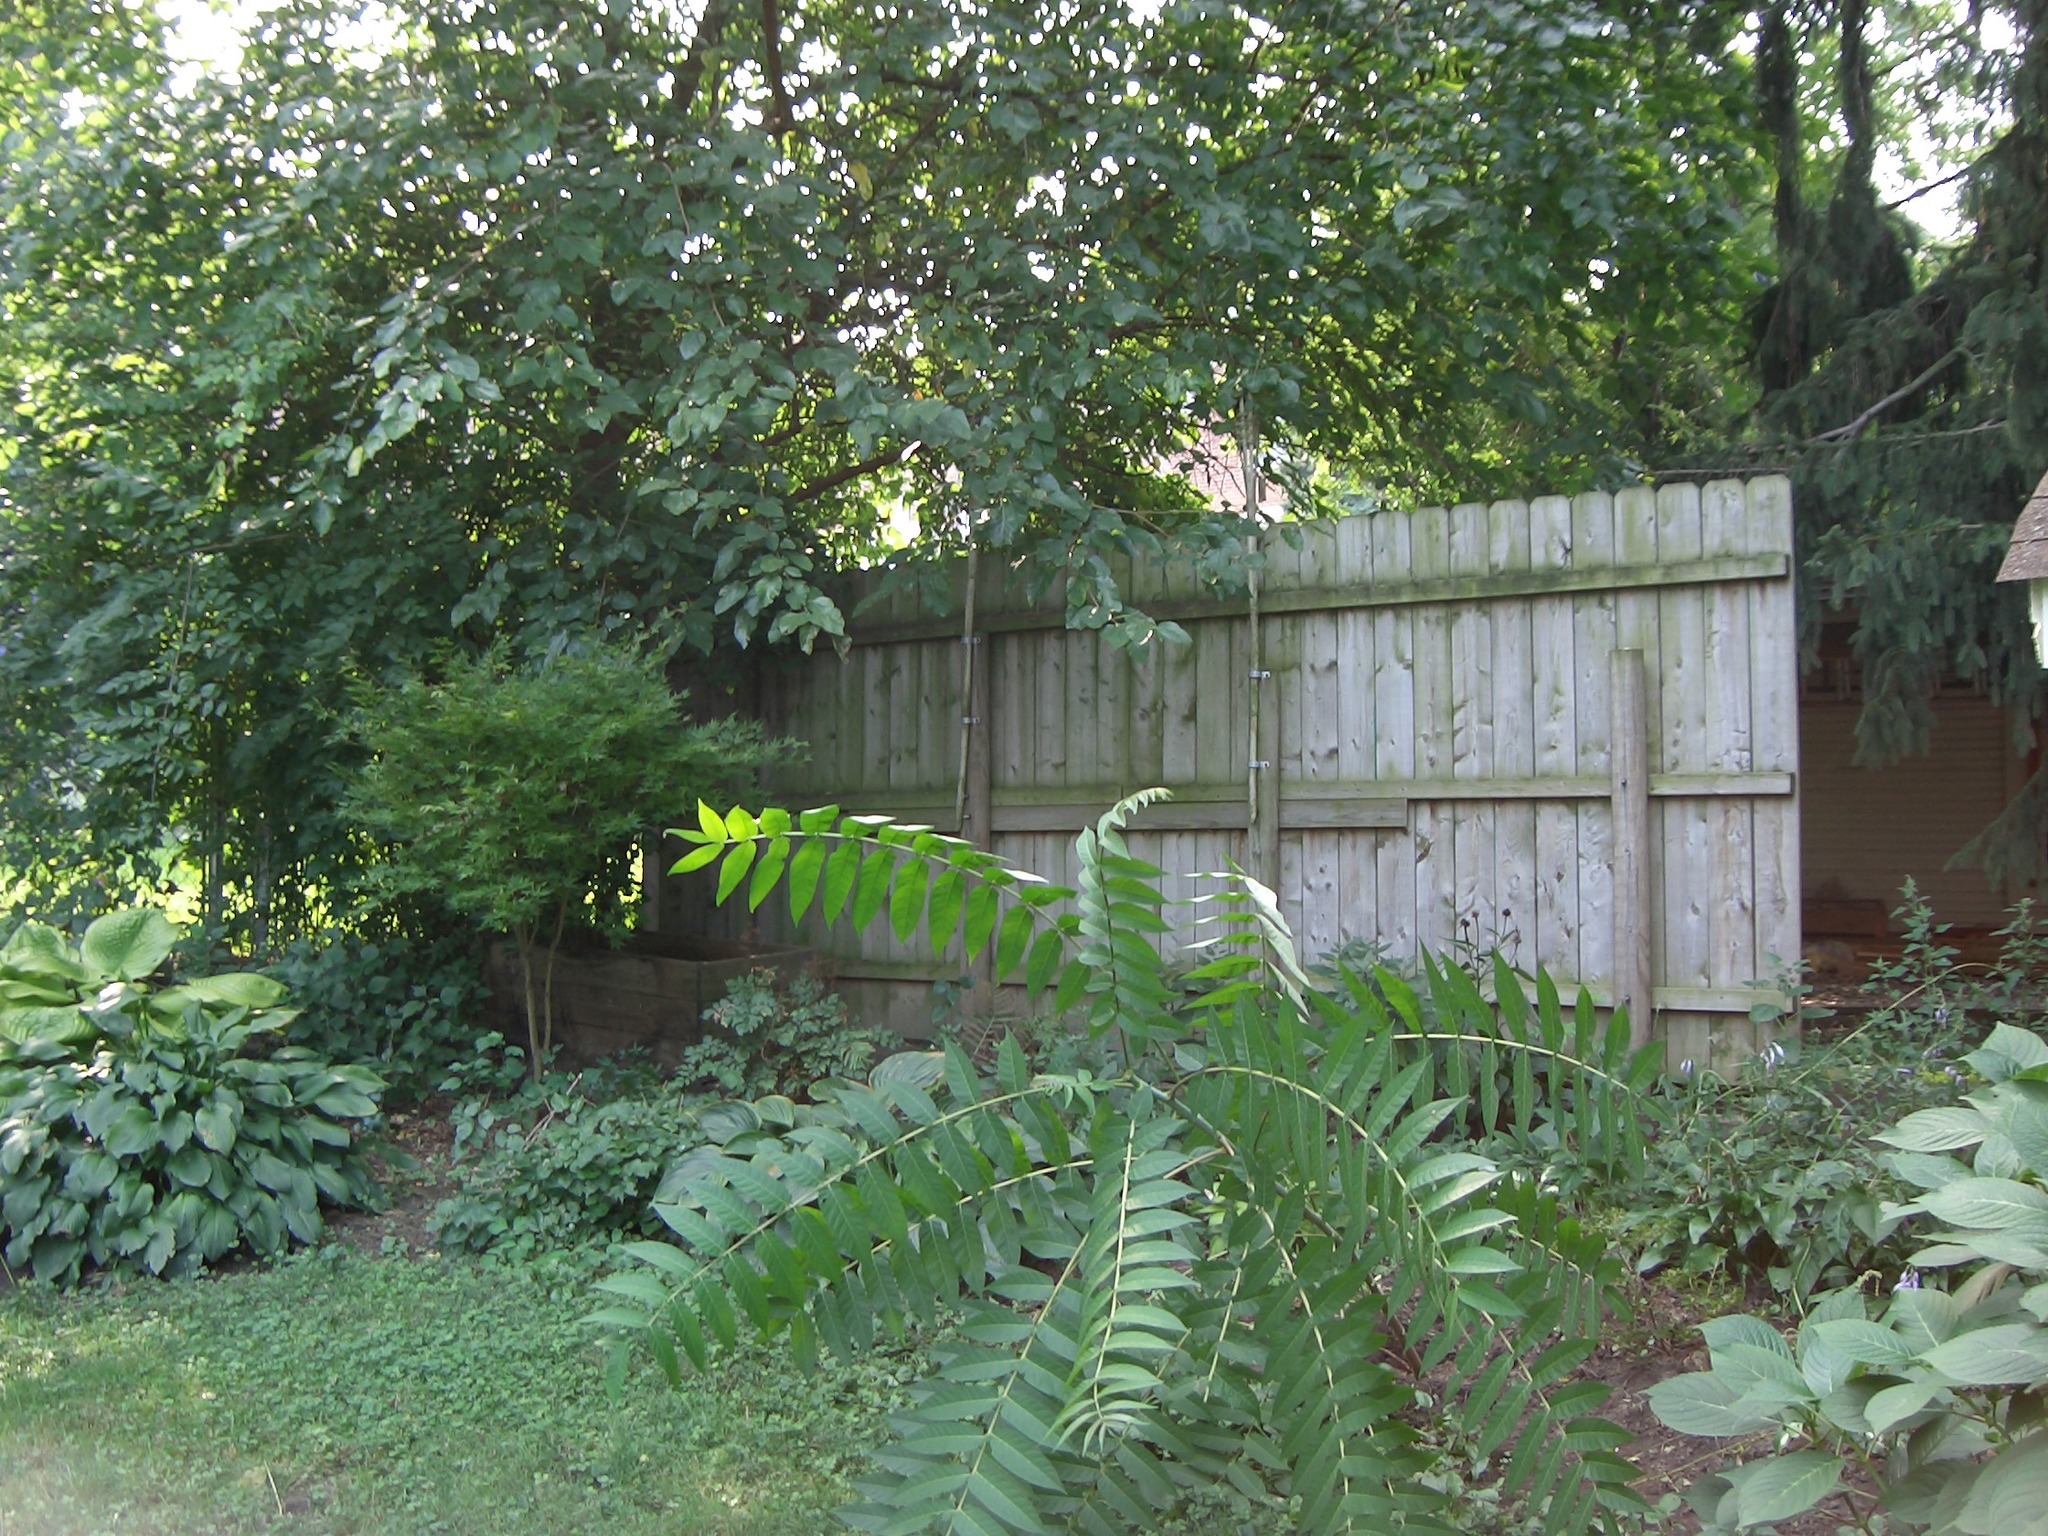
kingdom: Plantae
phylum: Tracheophyta
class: Magnoliopsida
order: Sapindales
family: Simaroubaceae
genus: Ailanthus
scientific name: Ailanthus altissima
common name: Tree-of-heaven
